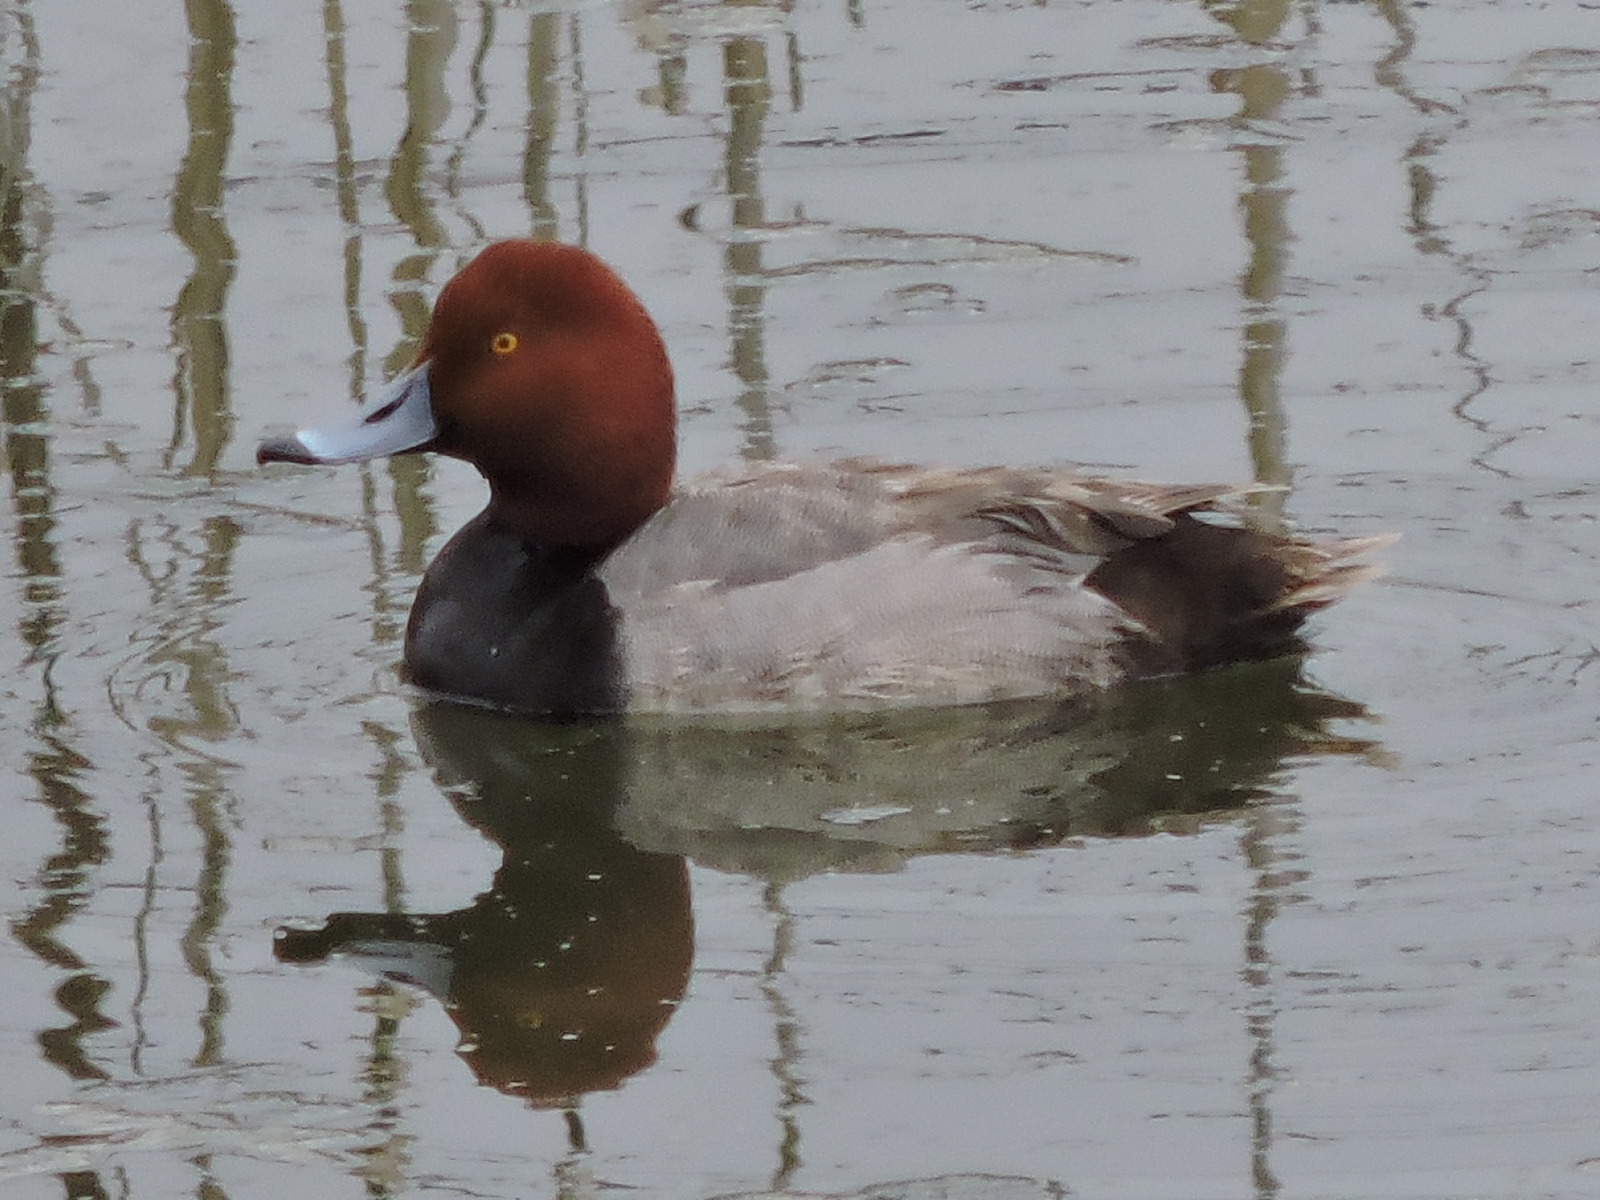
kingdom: Animalia
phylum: Chordata
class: Aves
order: Anseriformes
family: Anatidae
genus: Aythya
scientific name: Aythya americana
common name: Redhead
